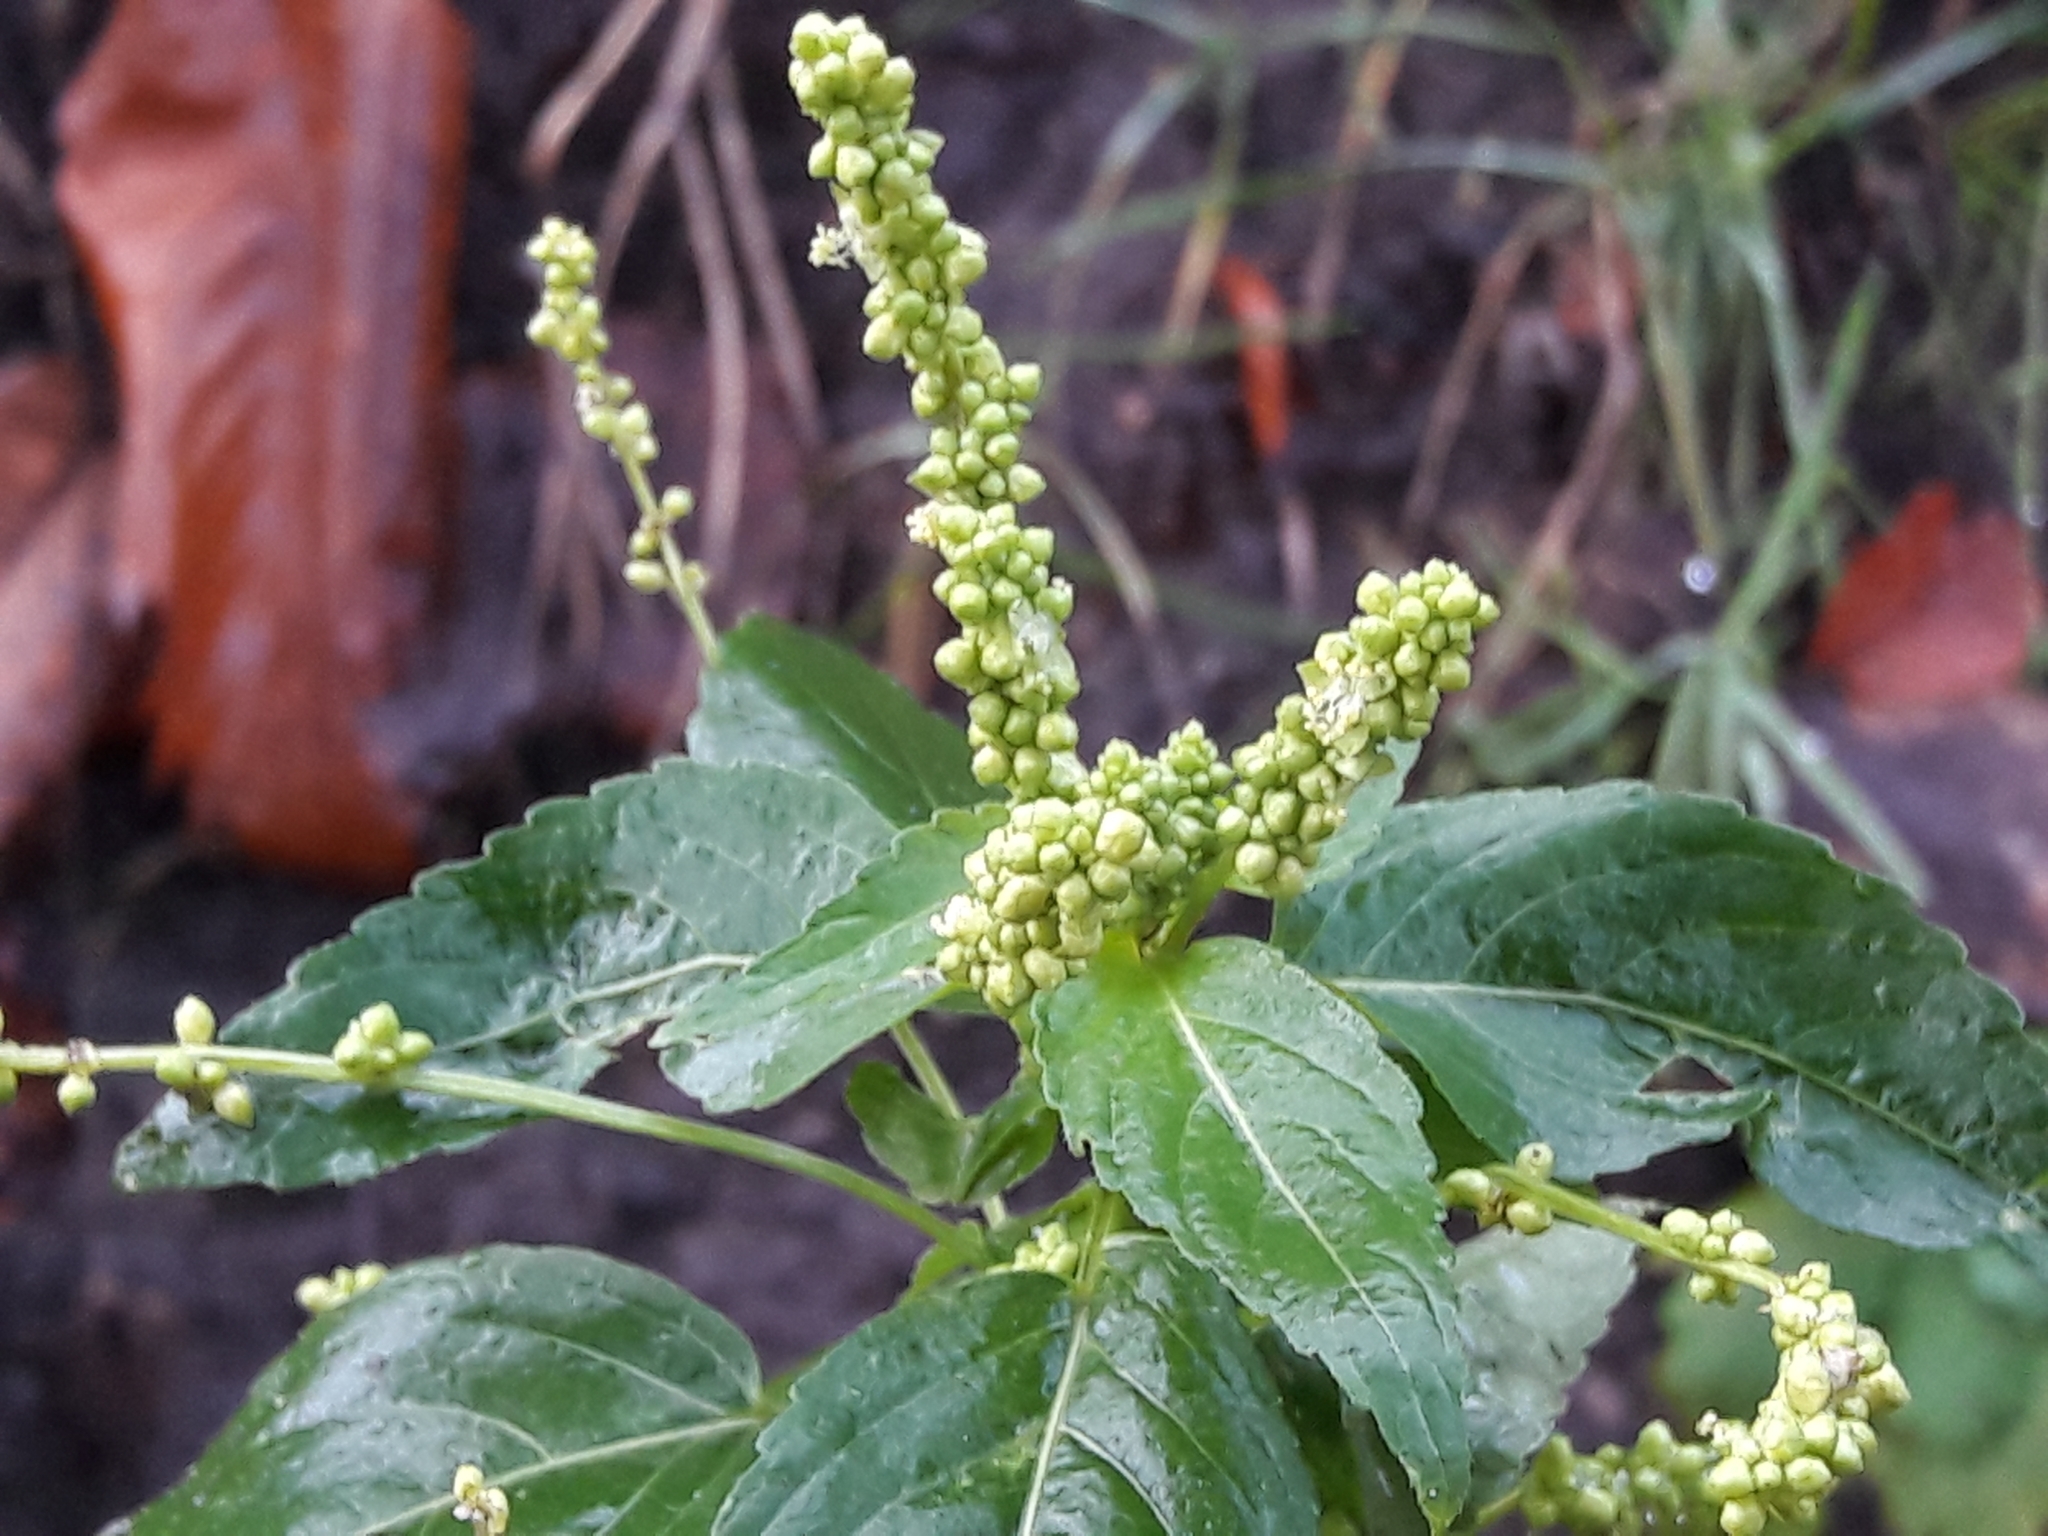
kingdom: Plantae
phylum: Tracheophyta
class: Magnoliopsida
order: Malpighiales
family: Euphorbiaceae
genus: Mercurialis
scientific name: Mercurialis annua
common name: Annual mercury
